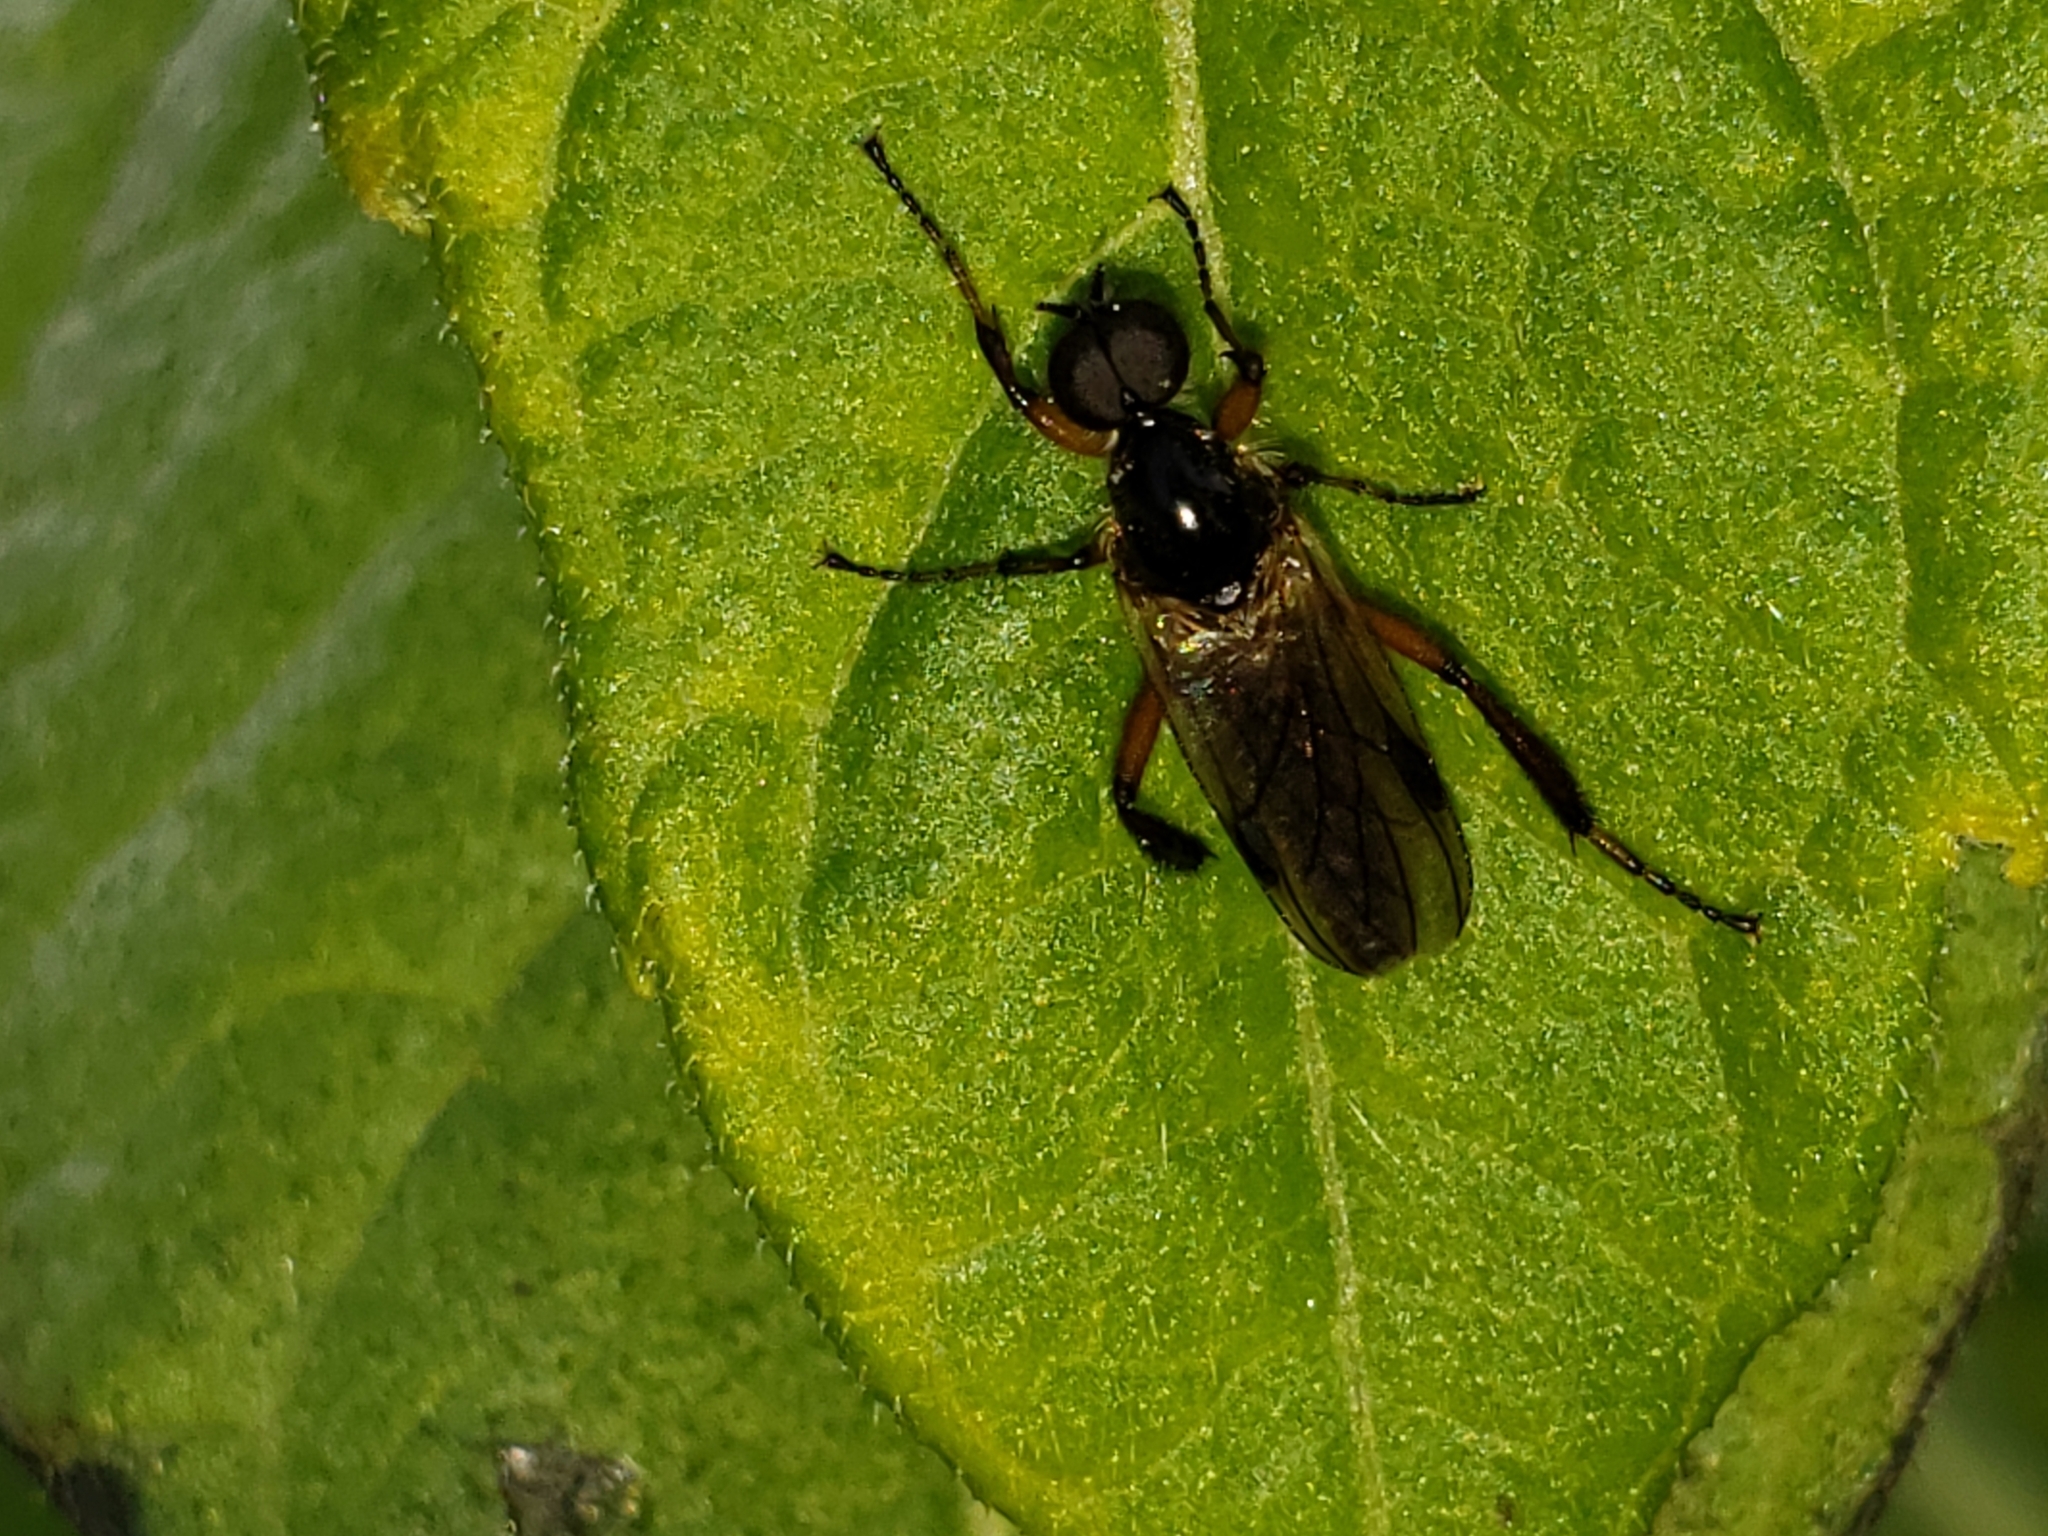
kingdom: Animalia
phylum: Arthropoda
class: Insecta
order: Diptera
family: Bibionidae
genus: Bibio
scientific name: Bibio
